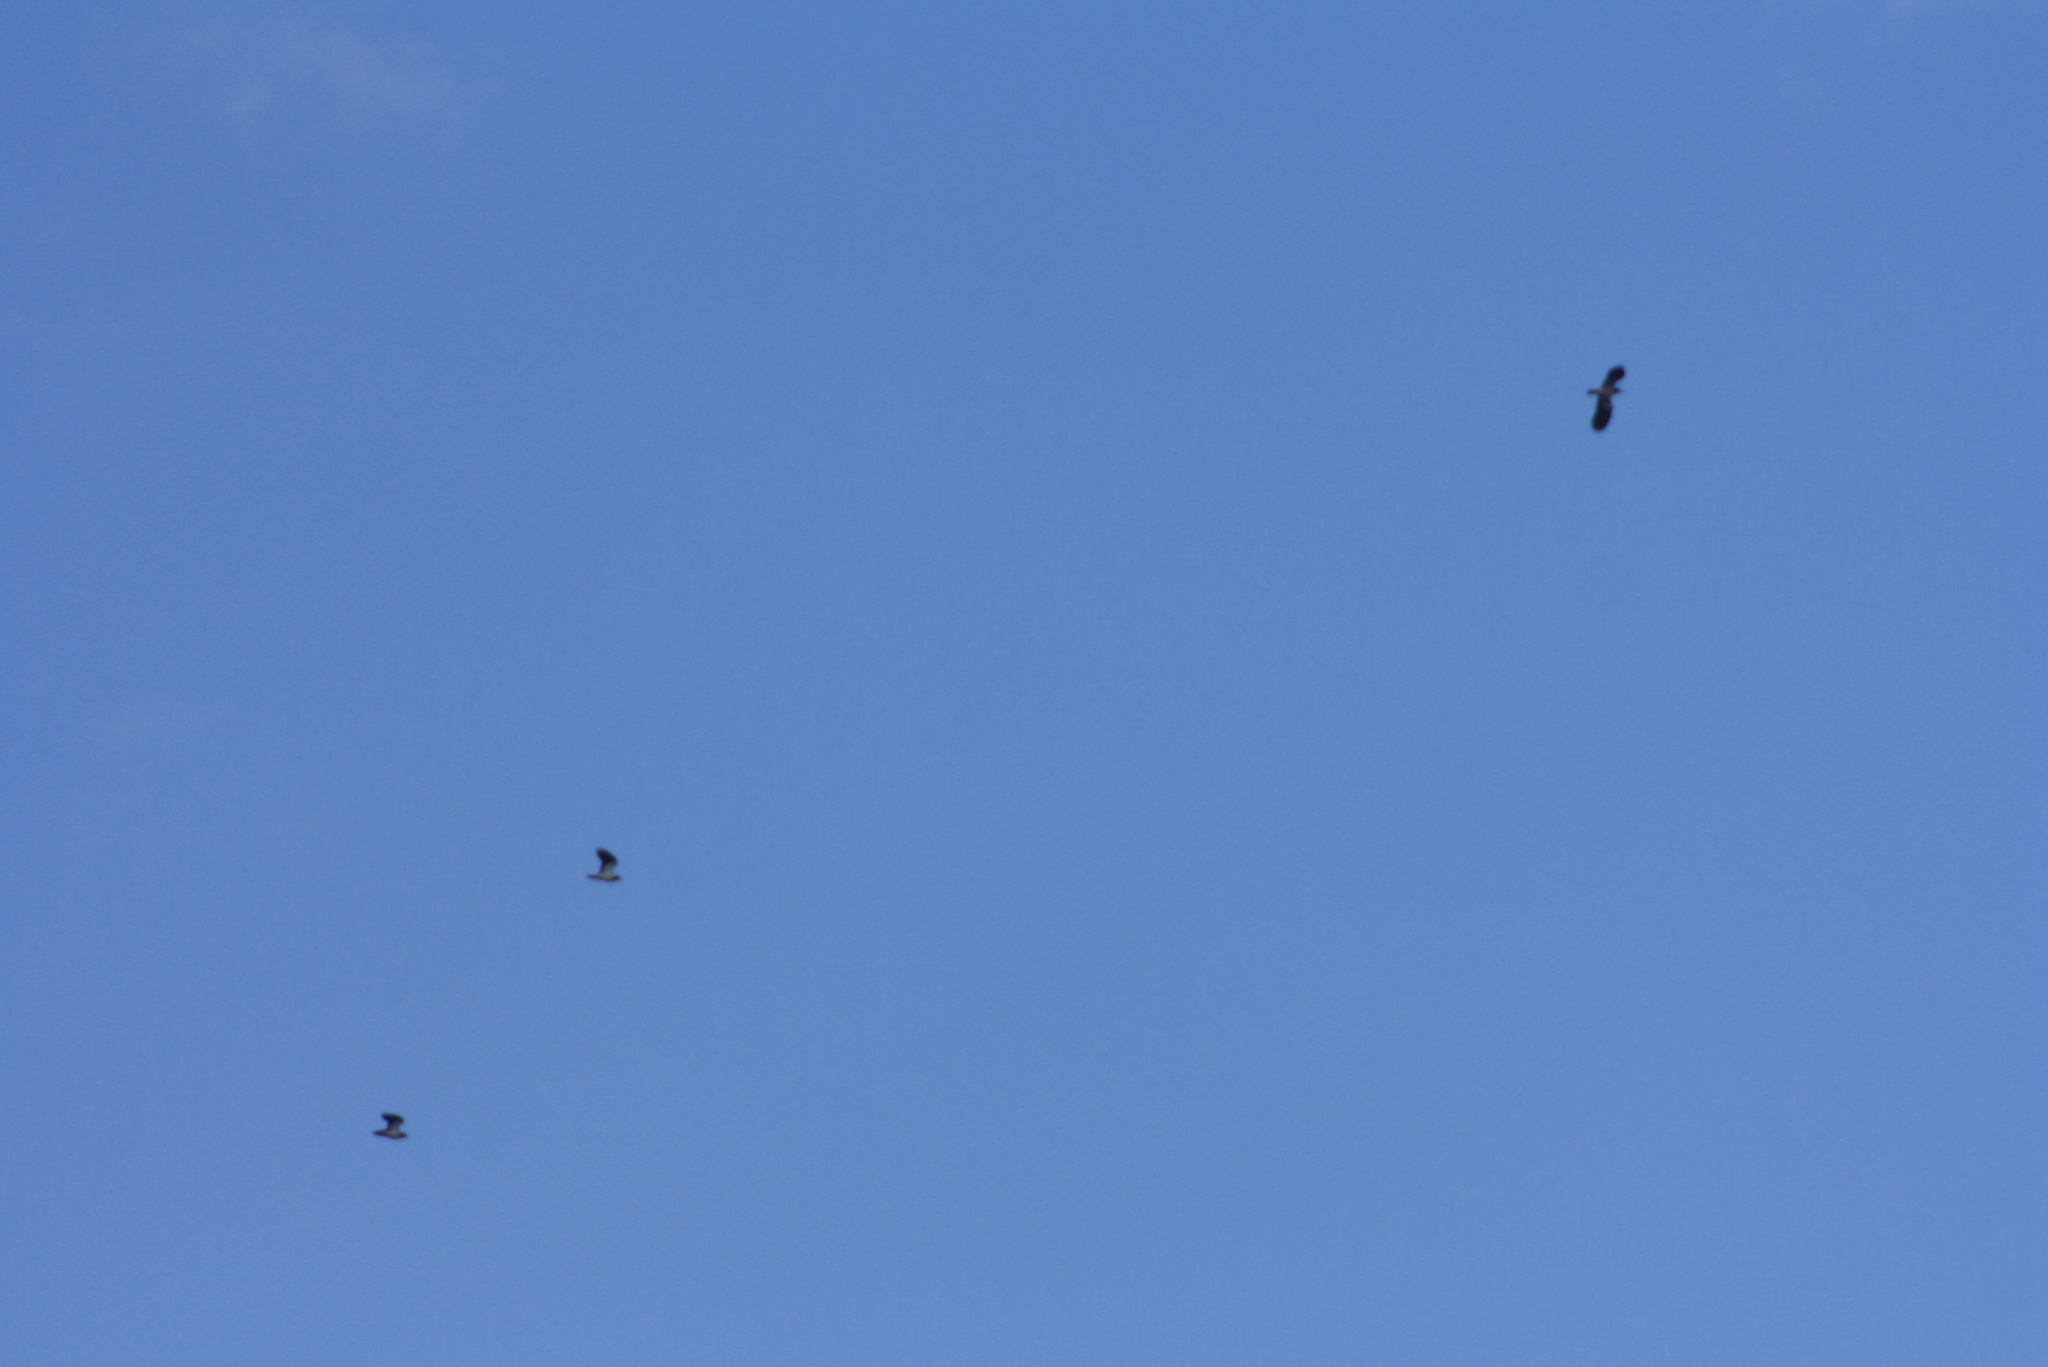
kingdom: Animalia
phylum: Chordata
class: Aves
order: Charadriiformes
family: Charadriidae
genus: Vanellus
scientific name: Vanellus vanellus
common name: Northern lapwing
